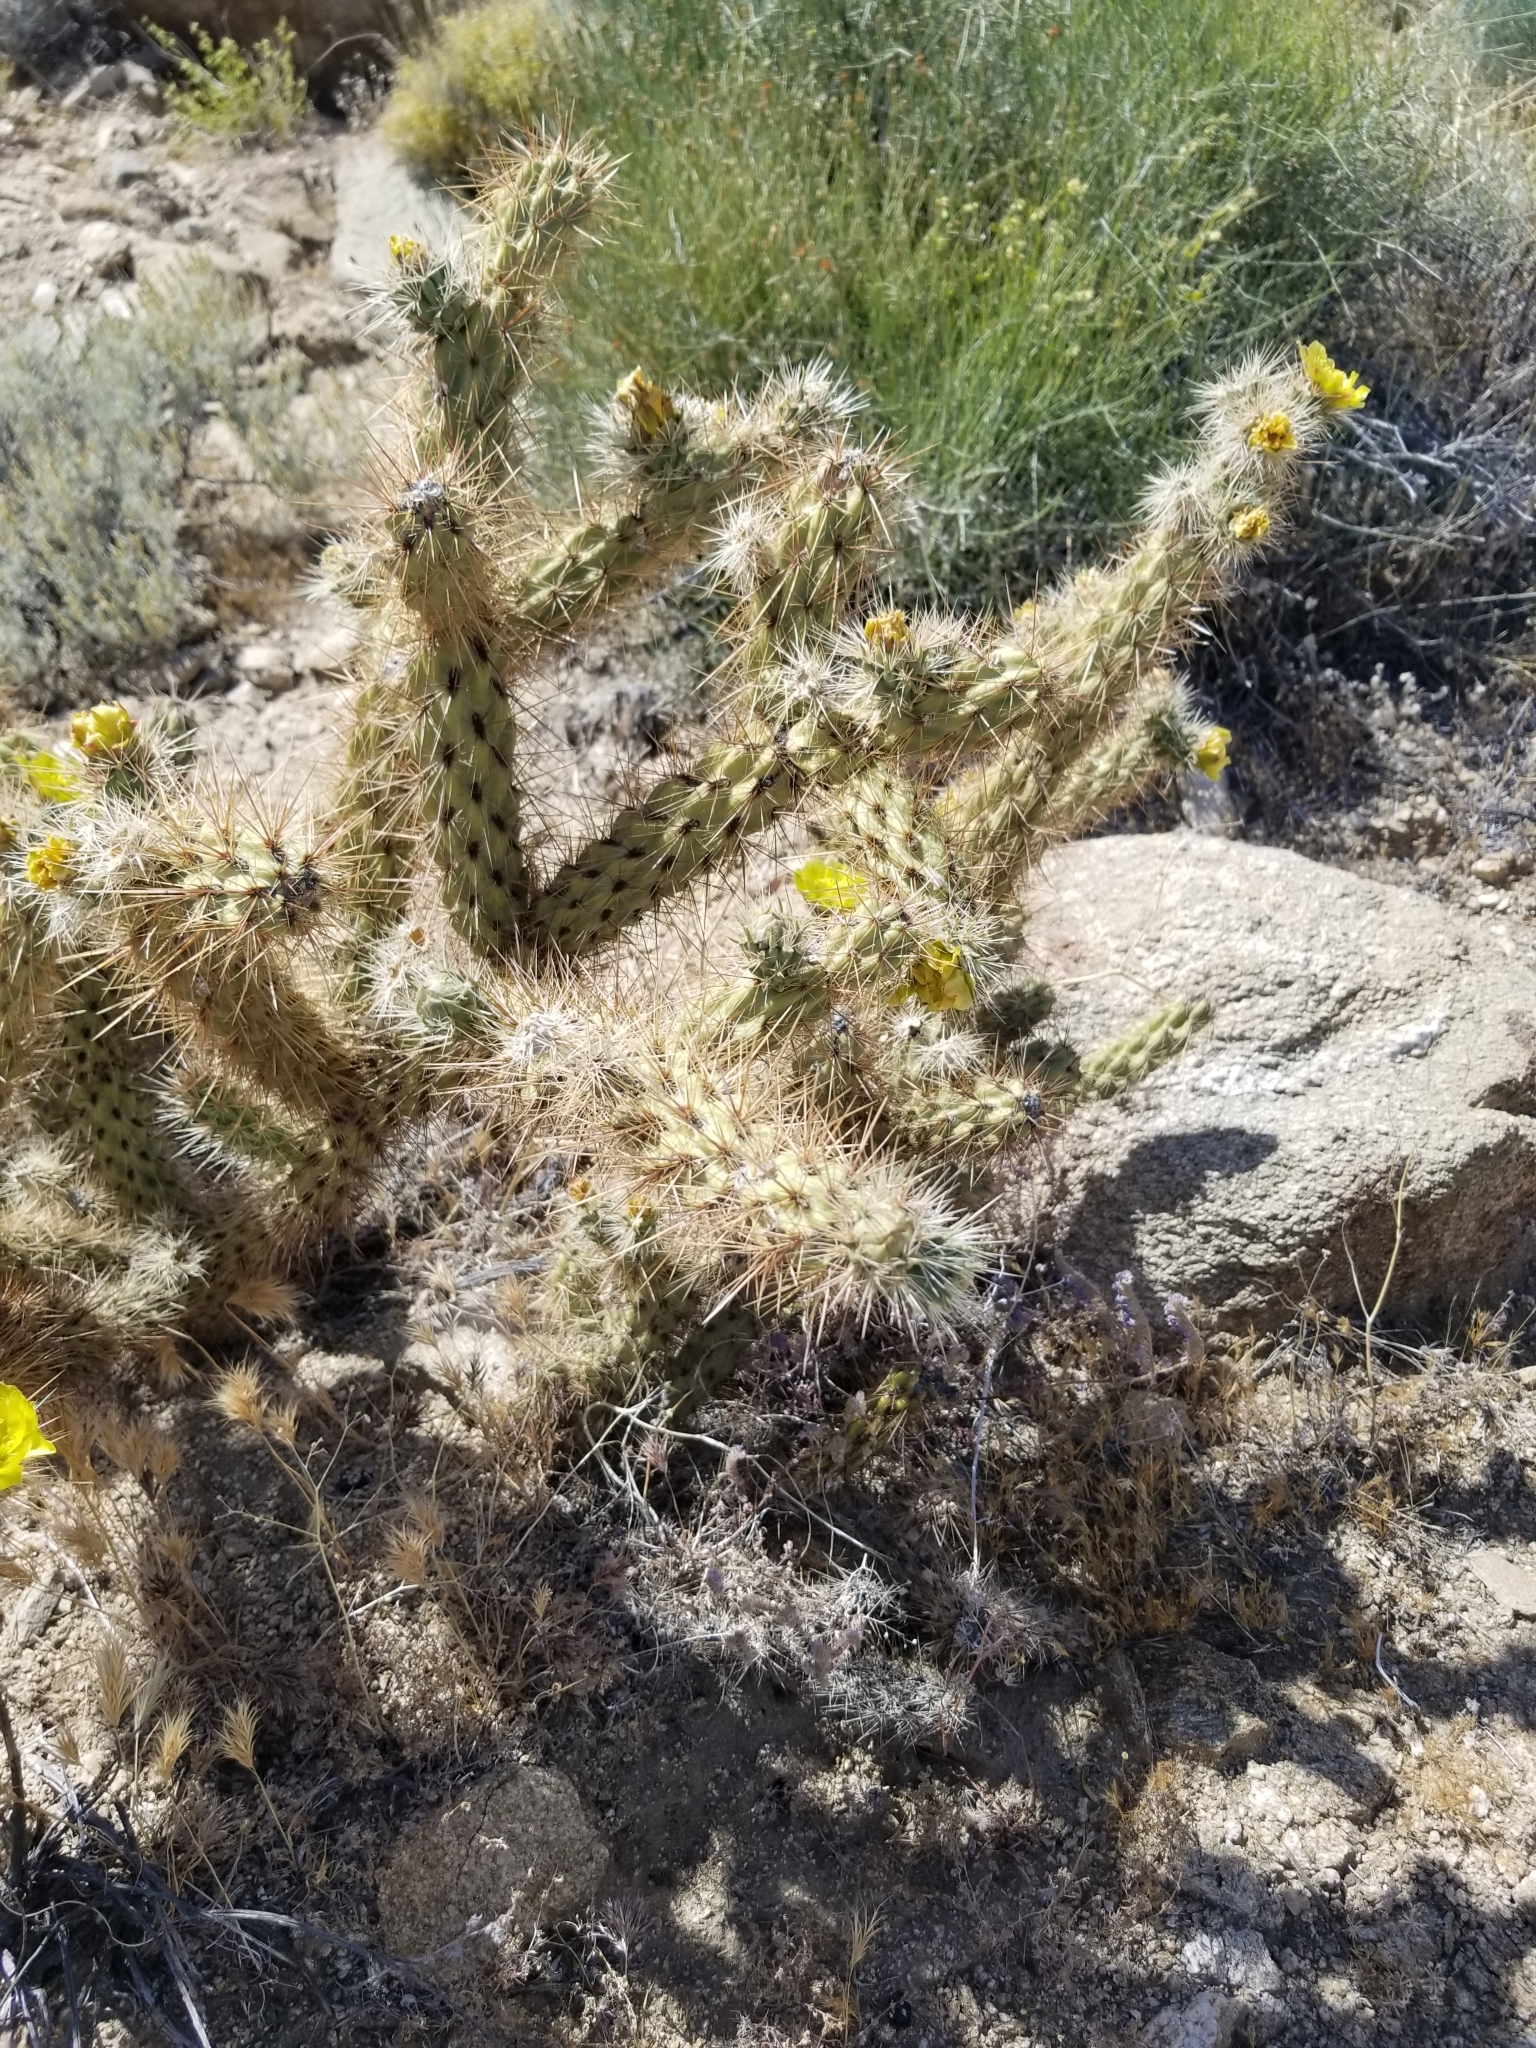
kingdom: Plantae
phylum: Tracheophyta
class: Magnoliopsida
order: Caryophyllales
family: Cactaceae
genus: Cylindropuntia
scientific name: Cylindropuntia ganderi
